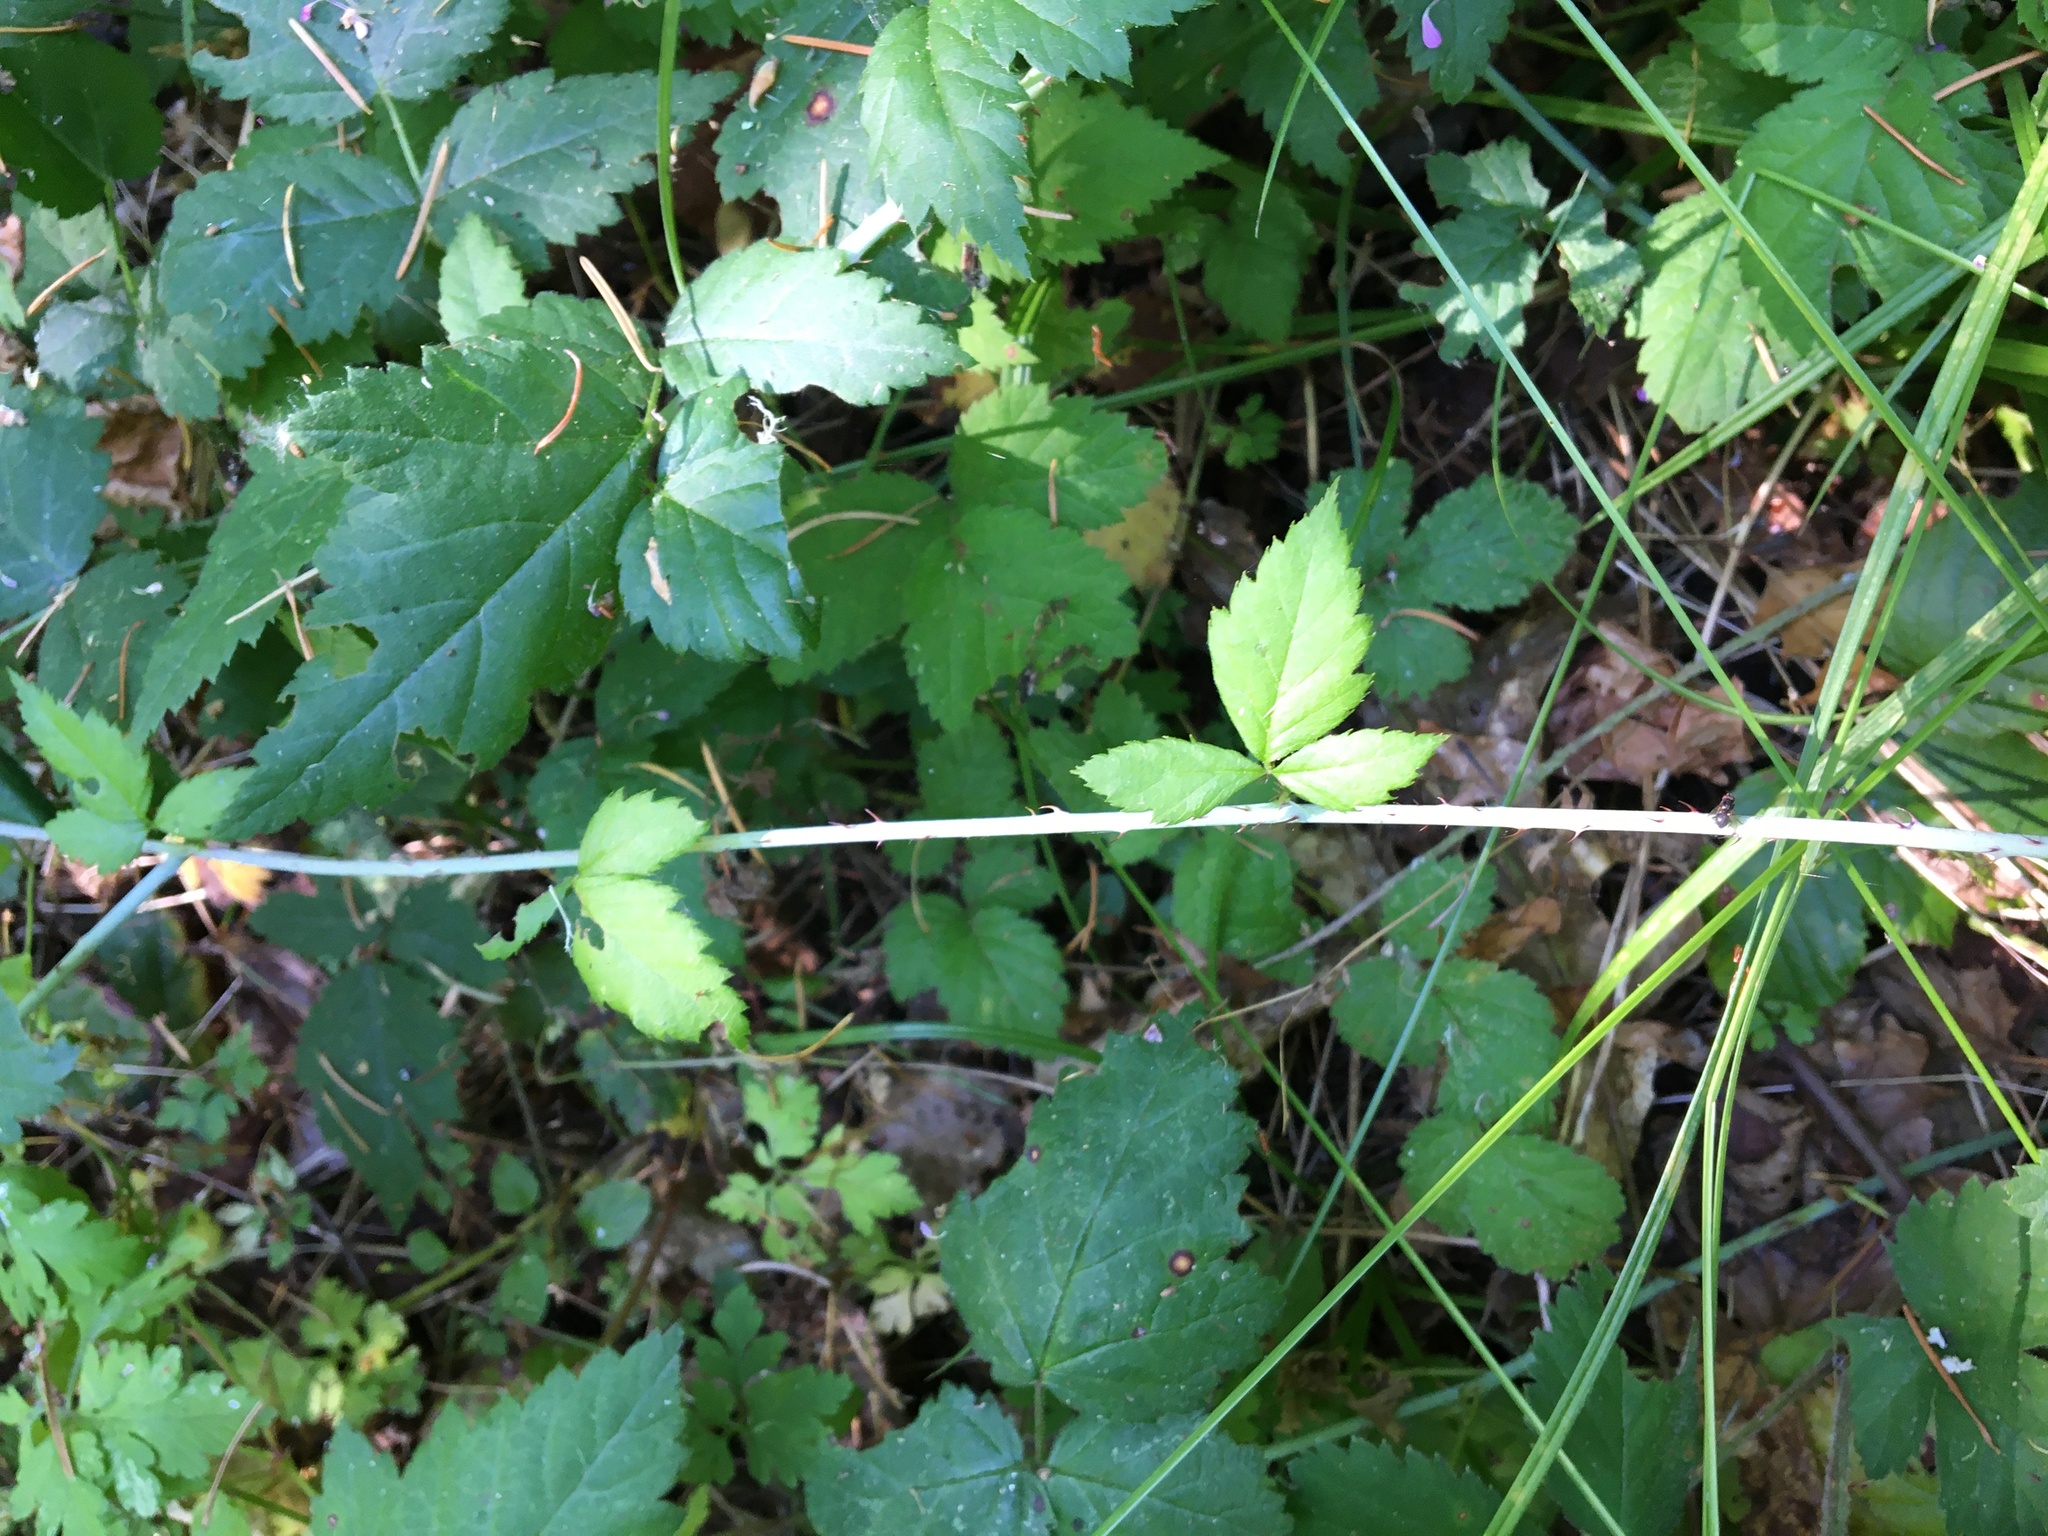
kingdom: Plantae
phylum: Tracheophyta
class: Magnoliopsida
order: Rosales
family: Rosaceae
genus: Rubus
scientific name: Rubus ursinus
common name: Pacific blackberry
